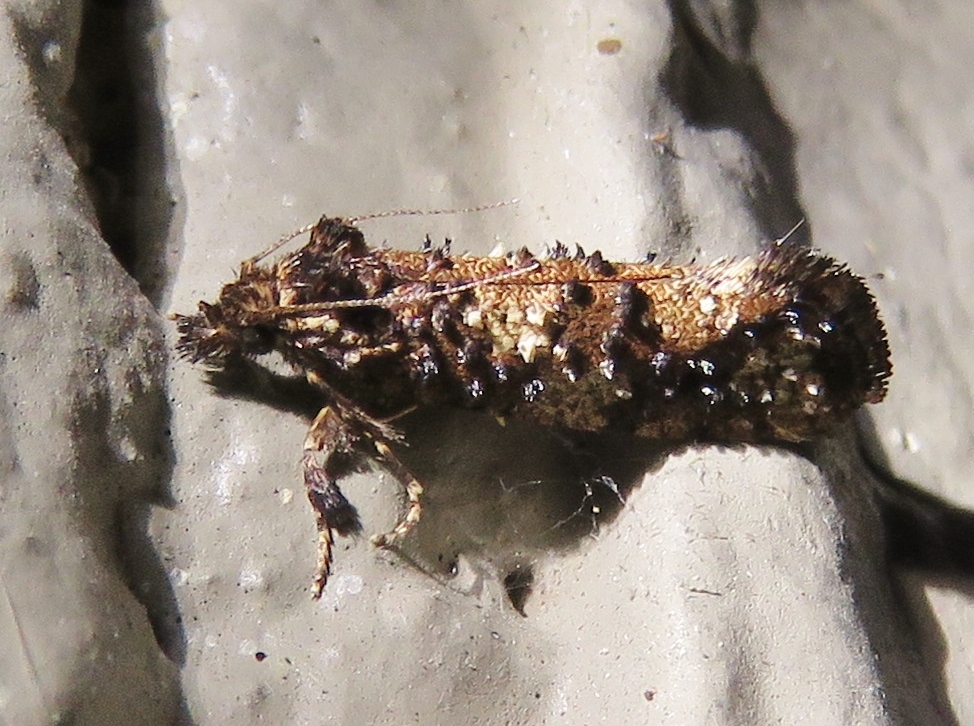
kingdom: Animalia
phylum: Arthropoda
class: Insecta
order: Lepidoptera
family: Tineidae
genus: Acrolophus
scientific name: Acrolophus cressoni
